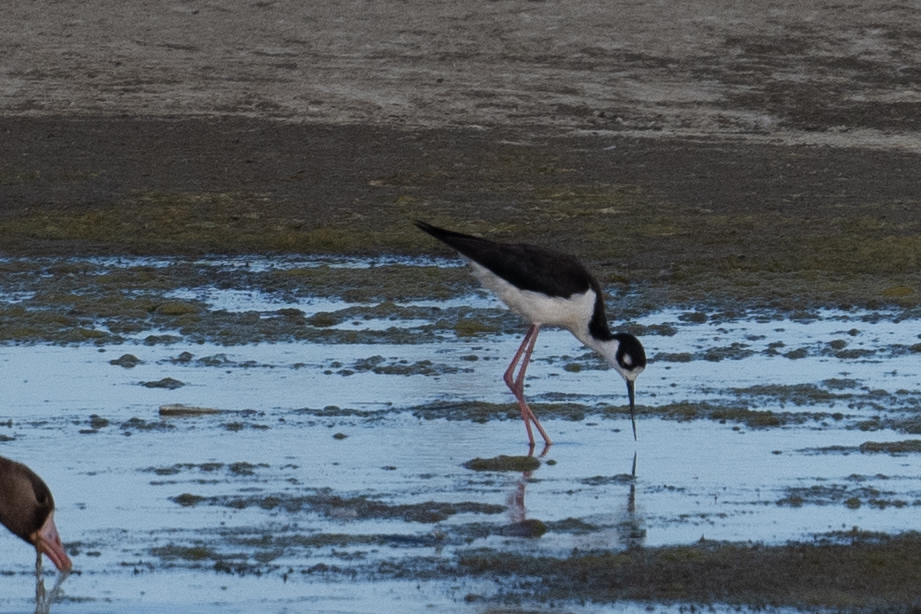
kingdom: Animalia
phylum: Chordata
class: Aves
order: Charadriiformes
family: Recurvirostridae
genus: Himantopus
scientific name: Himantopus mexicanus
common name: Black-necked stilt
